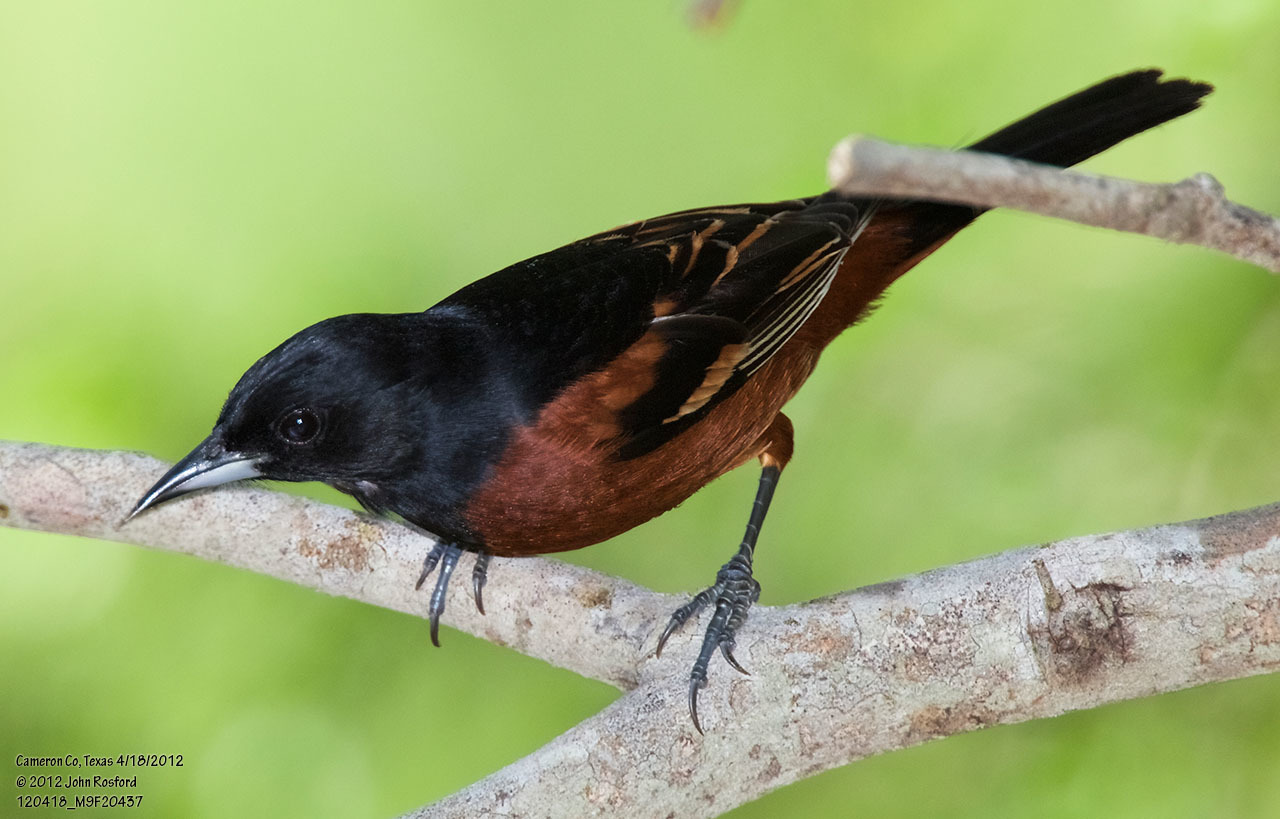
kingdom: Animalia
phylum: Chordata
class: Aves
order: Passeriformes
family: Icteridae
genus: Icterus
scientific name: Icterus spurius
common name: Orchard oriole
